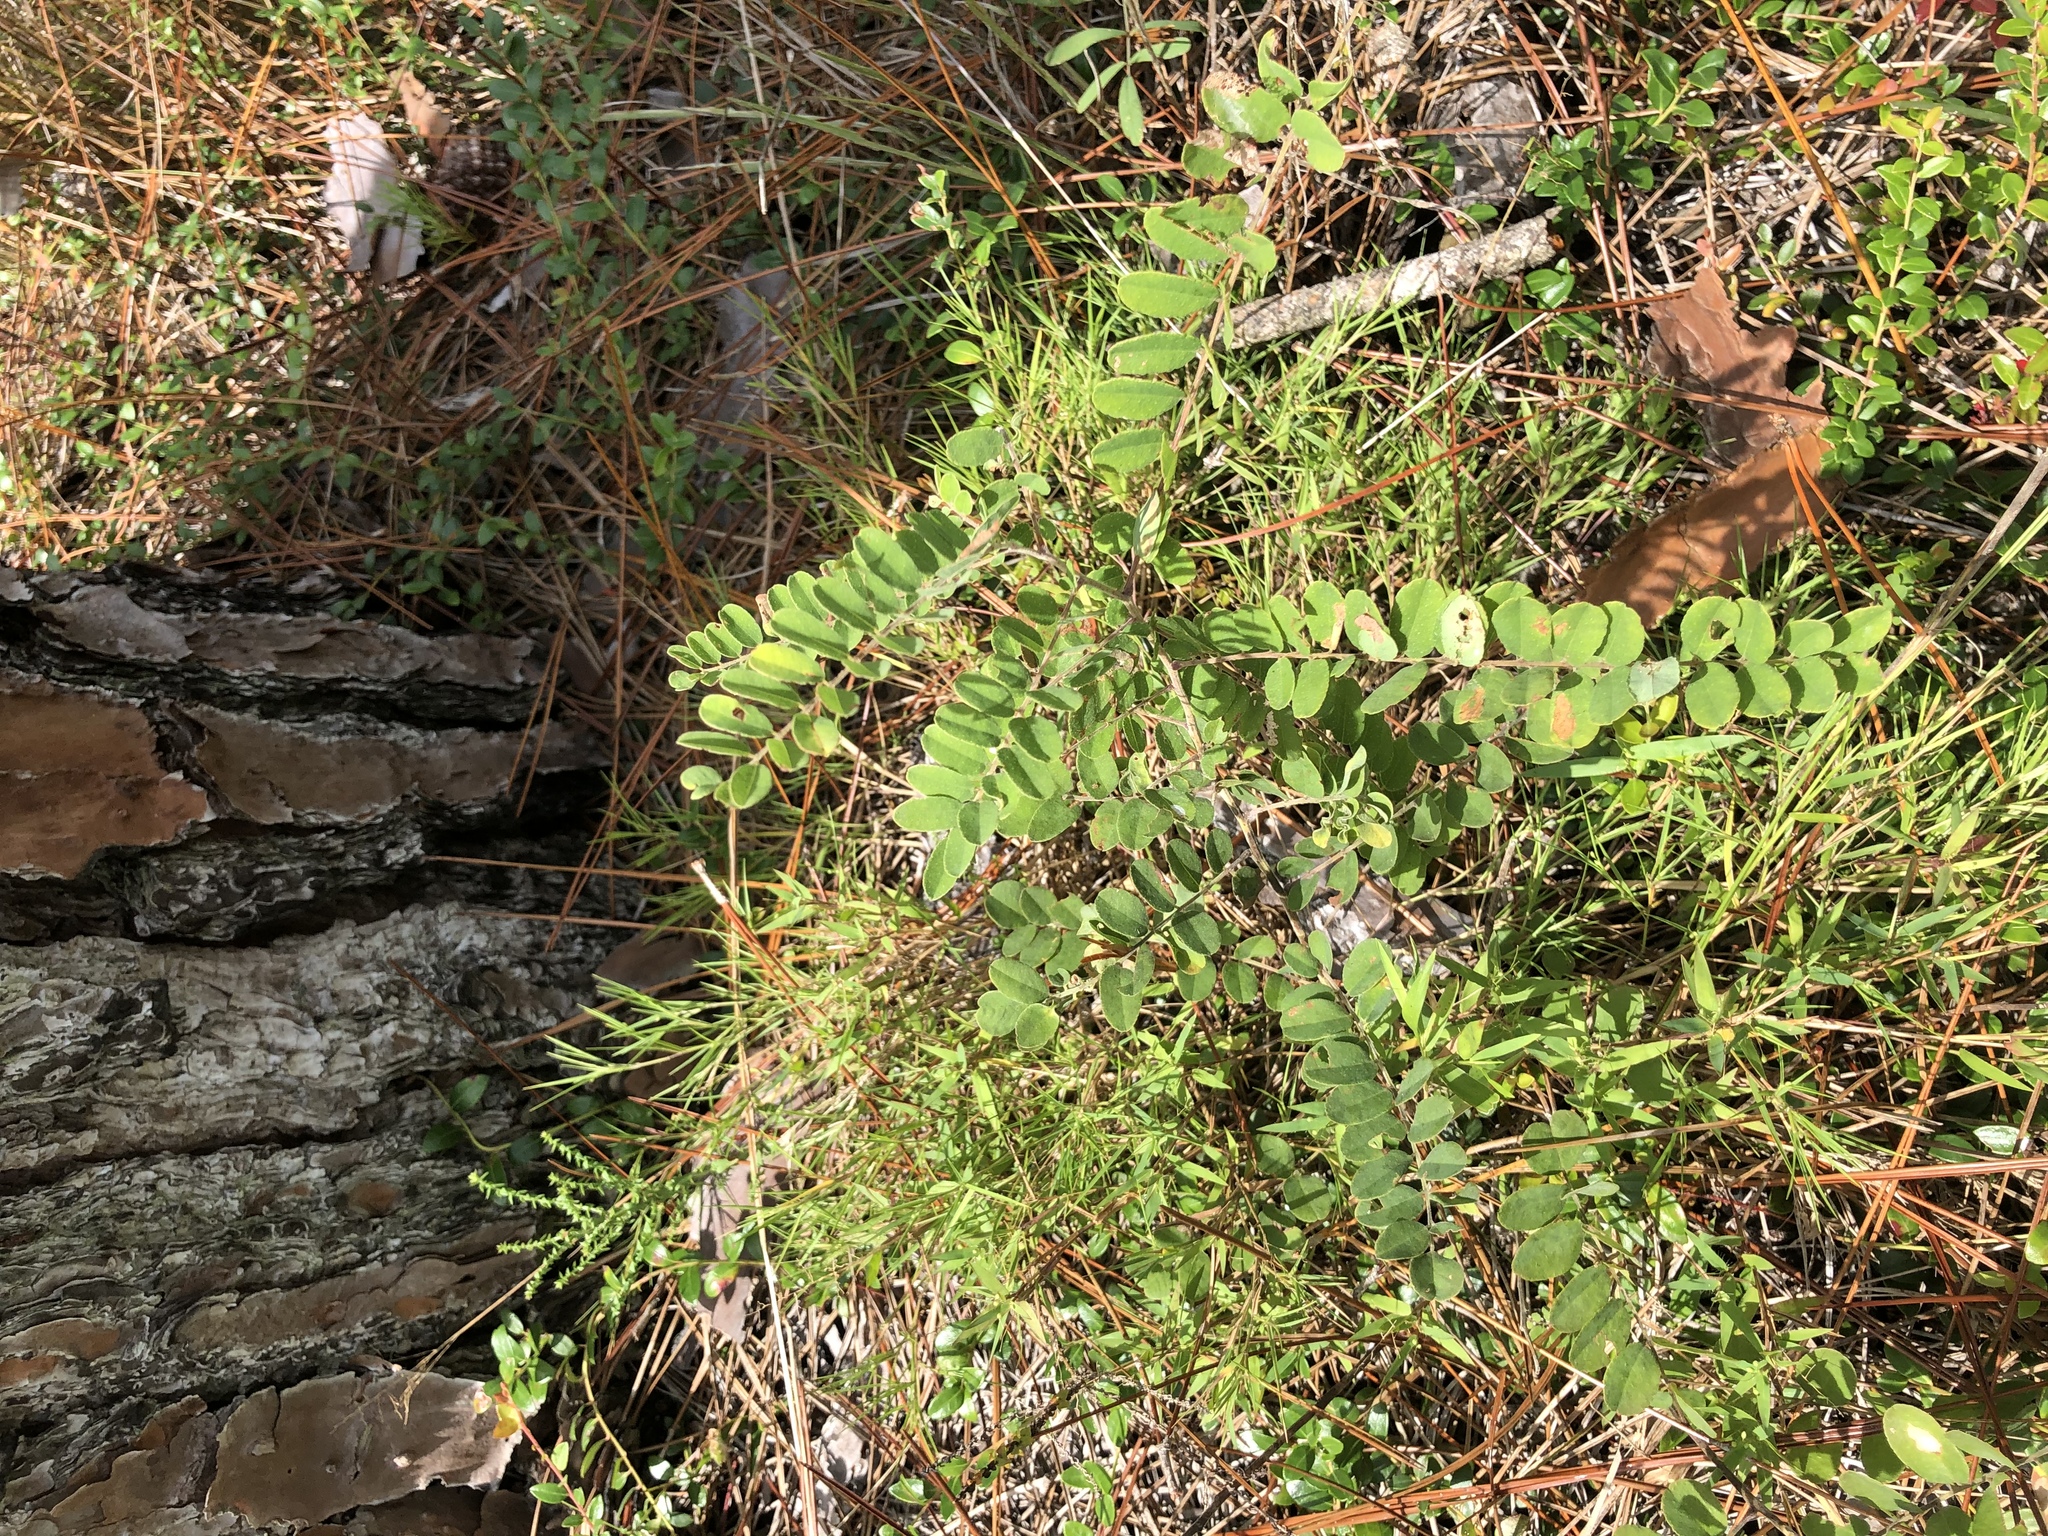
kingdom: Plantae
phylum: Tracheophyta
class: Magnoliopsida
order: Fabales
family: Fabaceae
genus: Amorpha
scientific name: Amorpha herbacea
